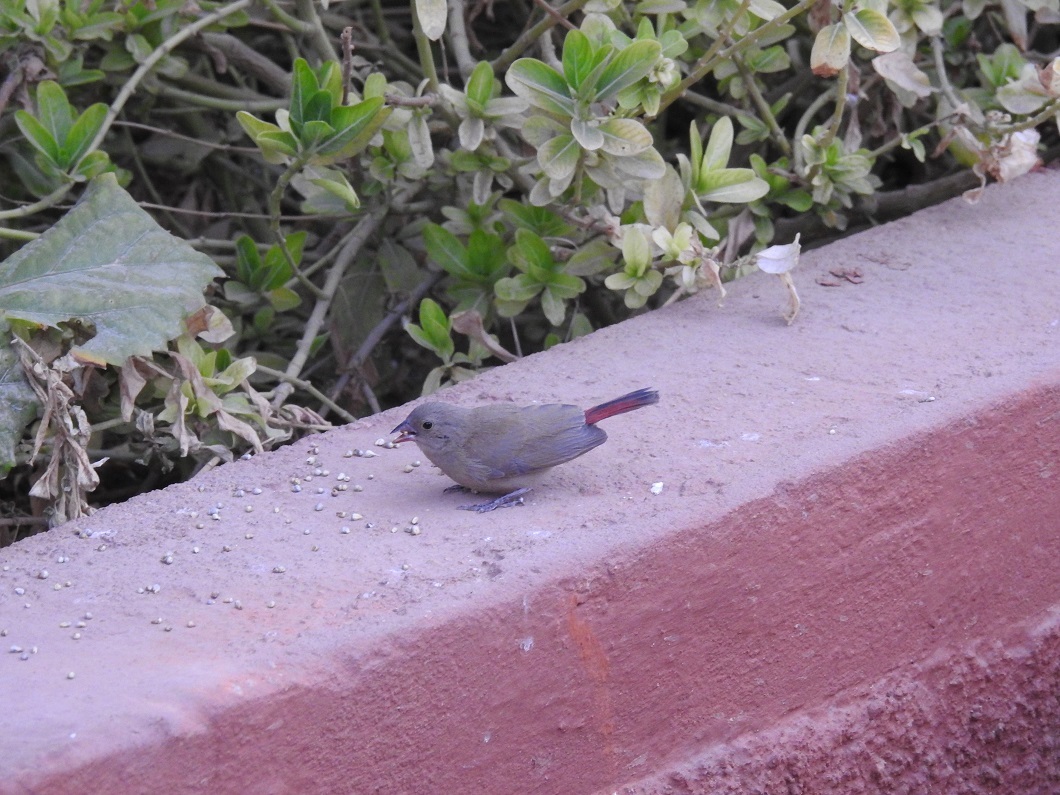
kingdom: Animalia
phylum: Chordata
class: Aves
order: Passeriformes
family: Estrildidae
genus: Lagonosticta
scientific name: Lagonosticta senegala
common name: Red-billed firefinch
